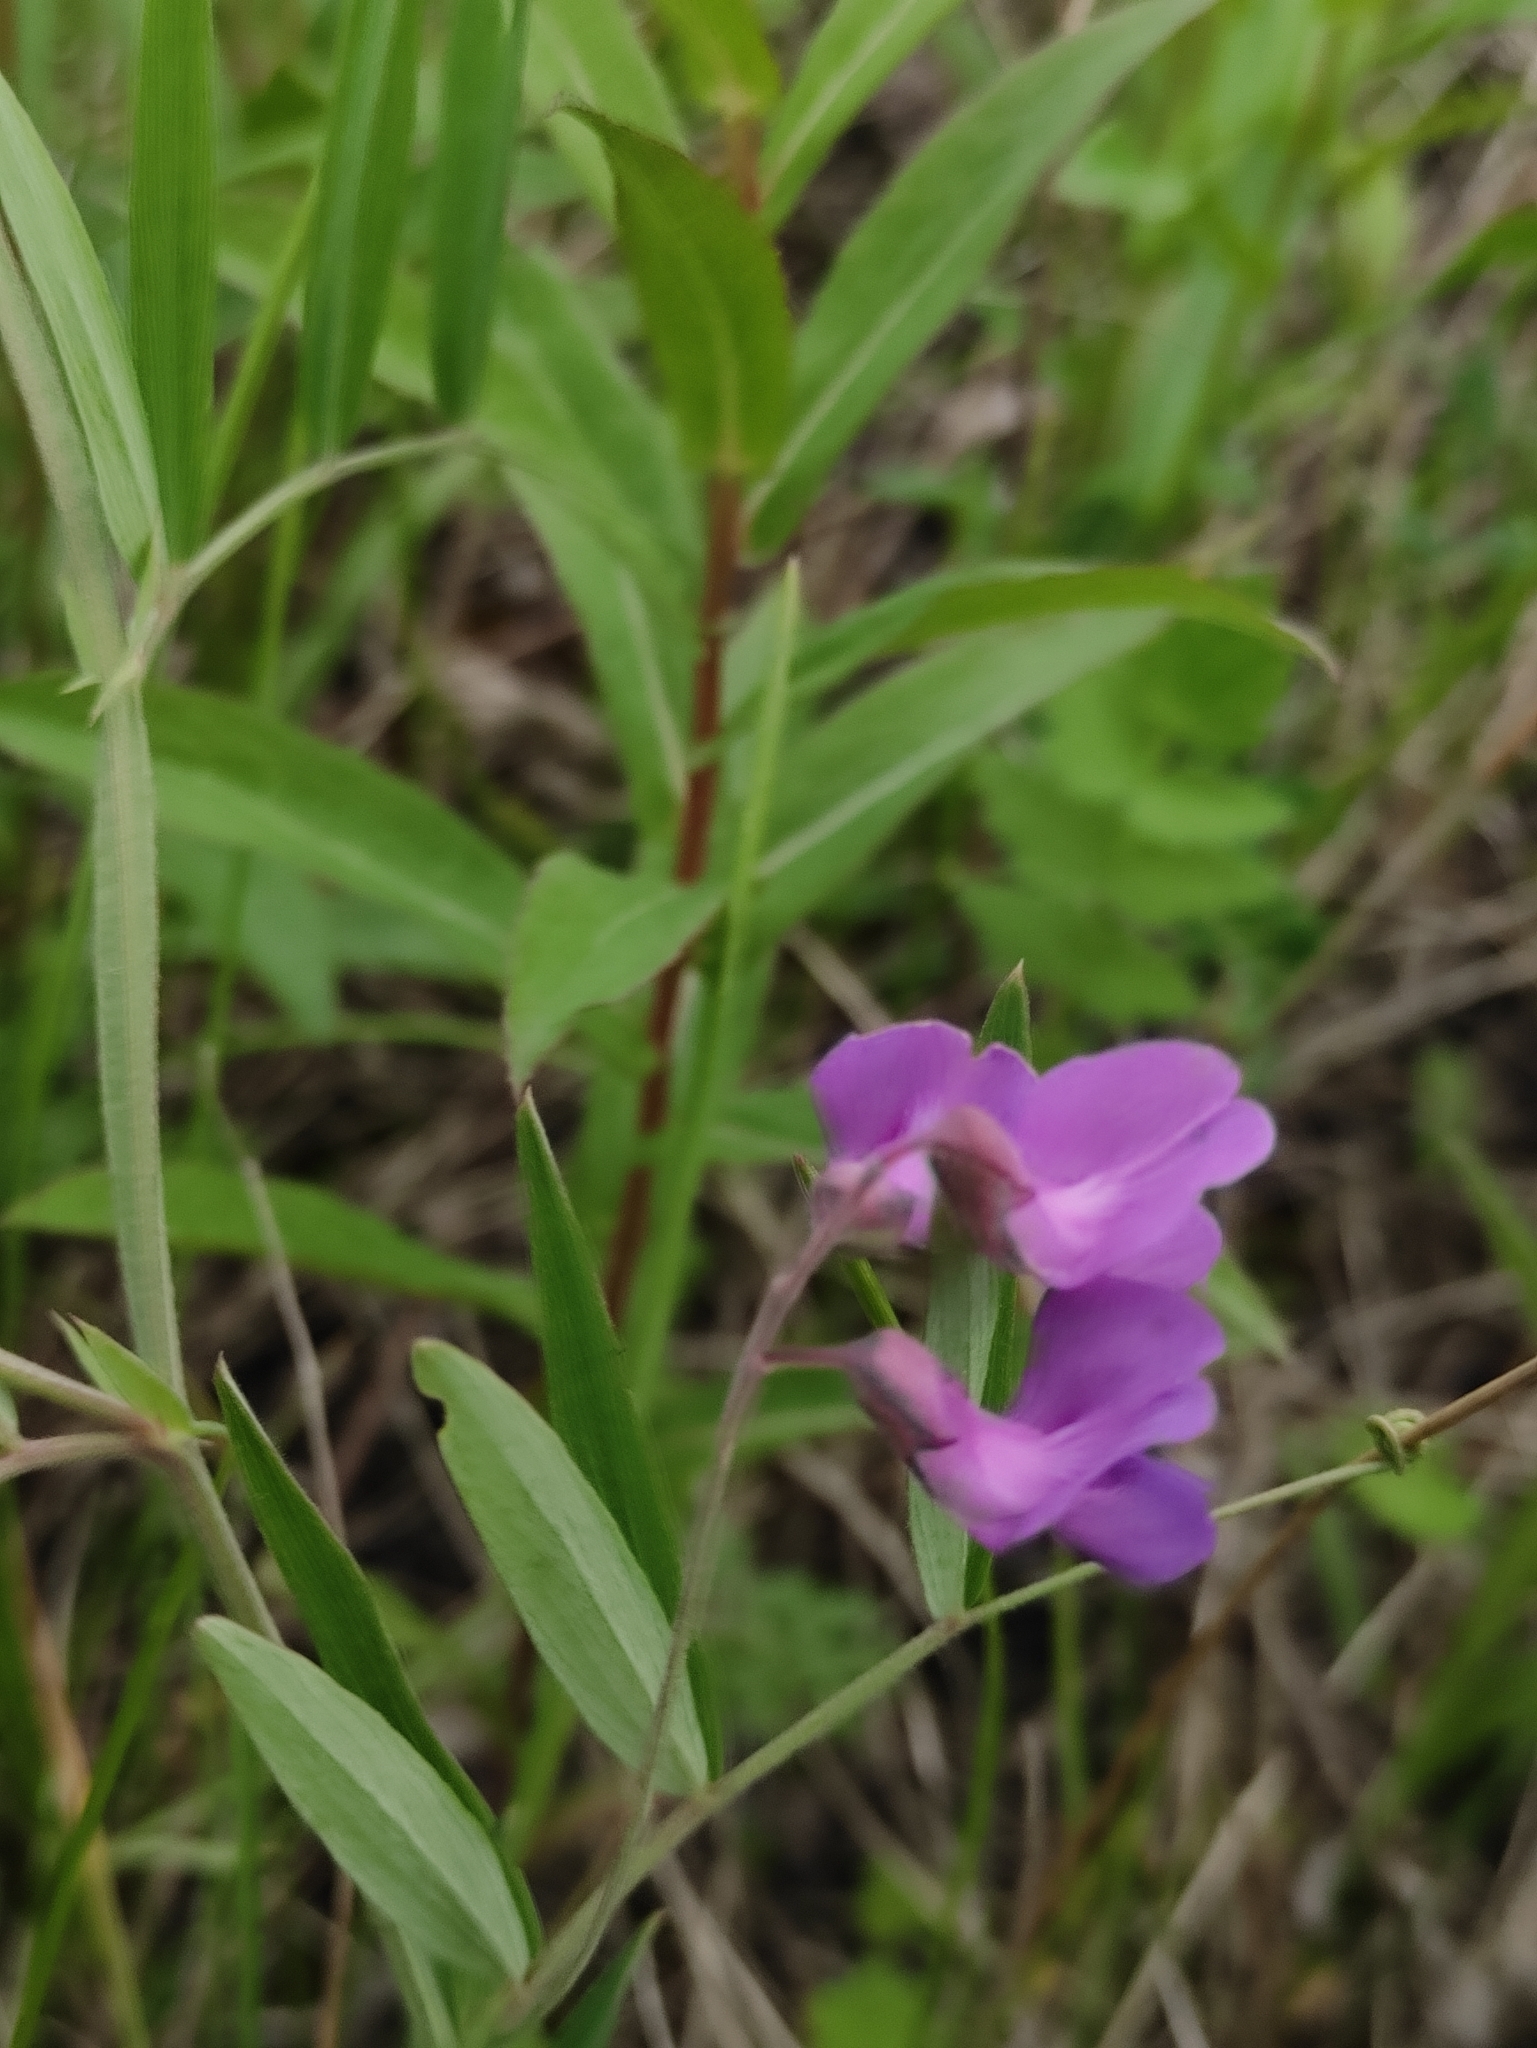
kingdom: Plantae
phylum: Tracheophyta
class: Magnoliopsida
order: Fabales
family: Fabaceae
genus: Lathyrus
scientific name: Lathyrus palustris
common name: Marsh pea
